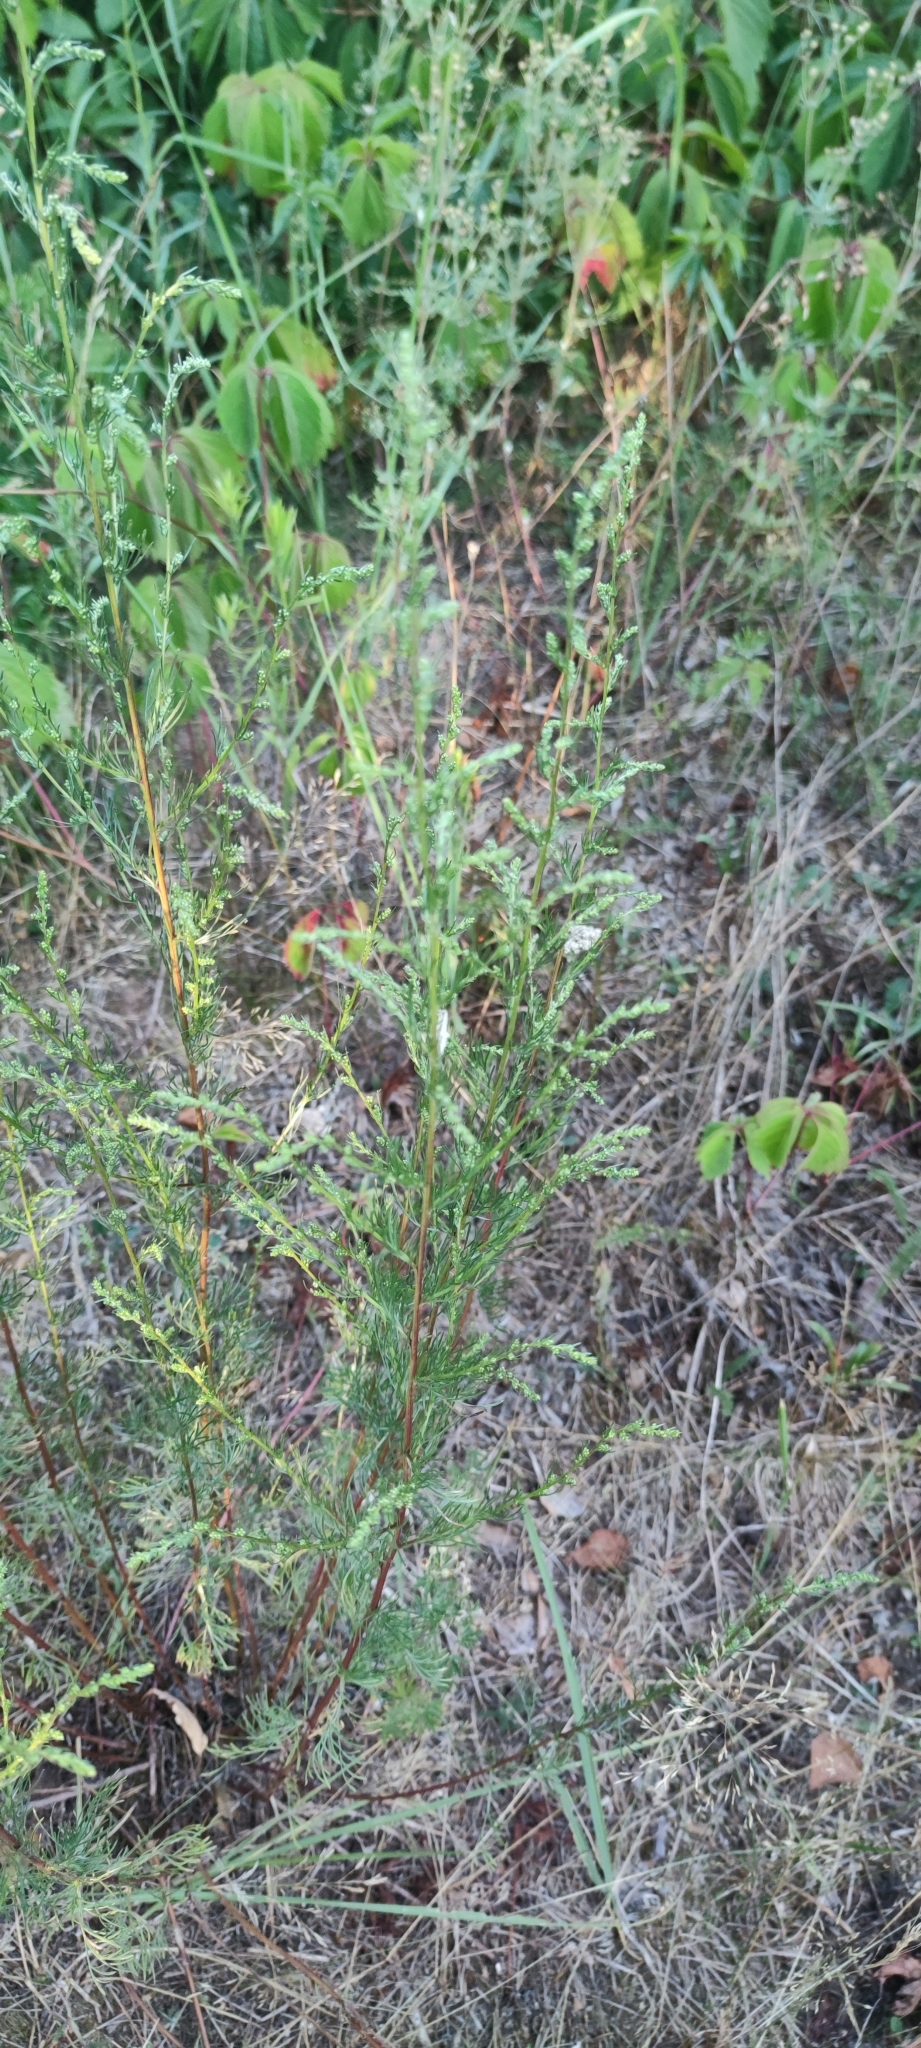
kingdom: Plantae
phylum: Tracheophyta
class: Magnoliopsida
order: Asterales
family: Asteraceae
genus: Artemisia
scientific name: Artemisia campestris
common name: Field wormwood
